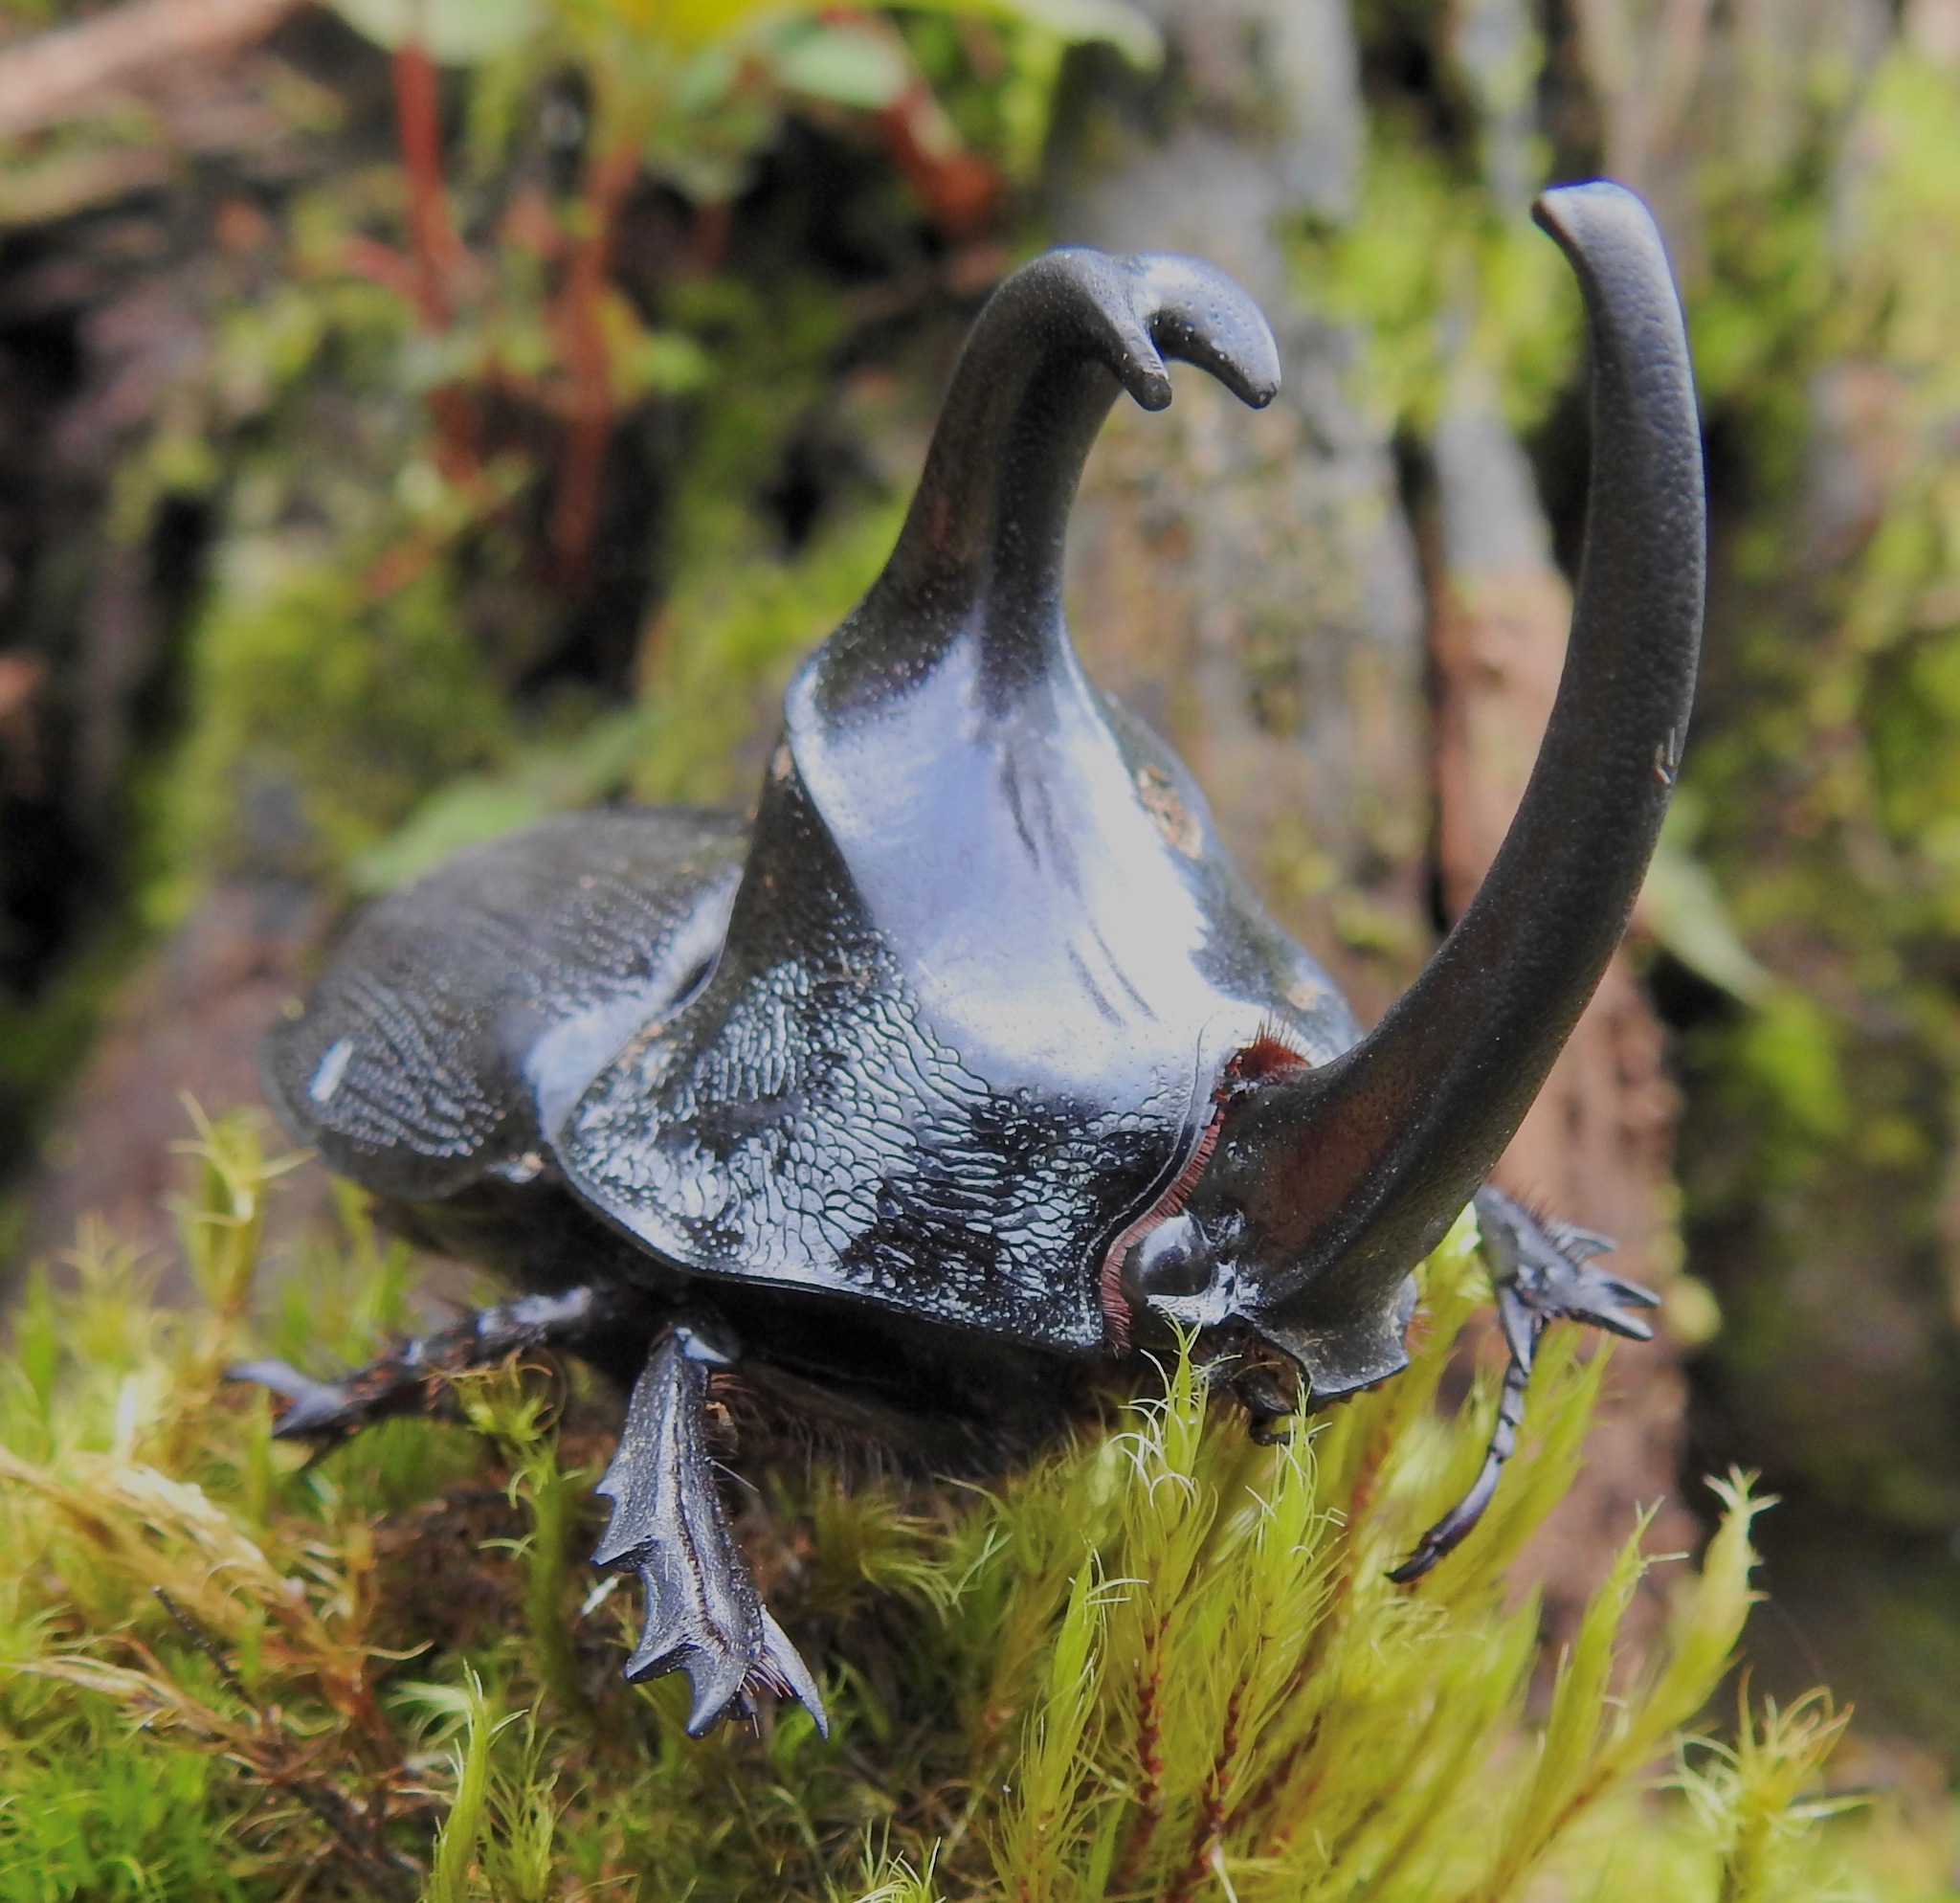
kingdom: Animalia
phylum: Arthropoda
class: Insecta
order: Coleoptera
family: Scarabaeidae
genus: Enema
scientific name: Enema pan
